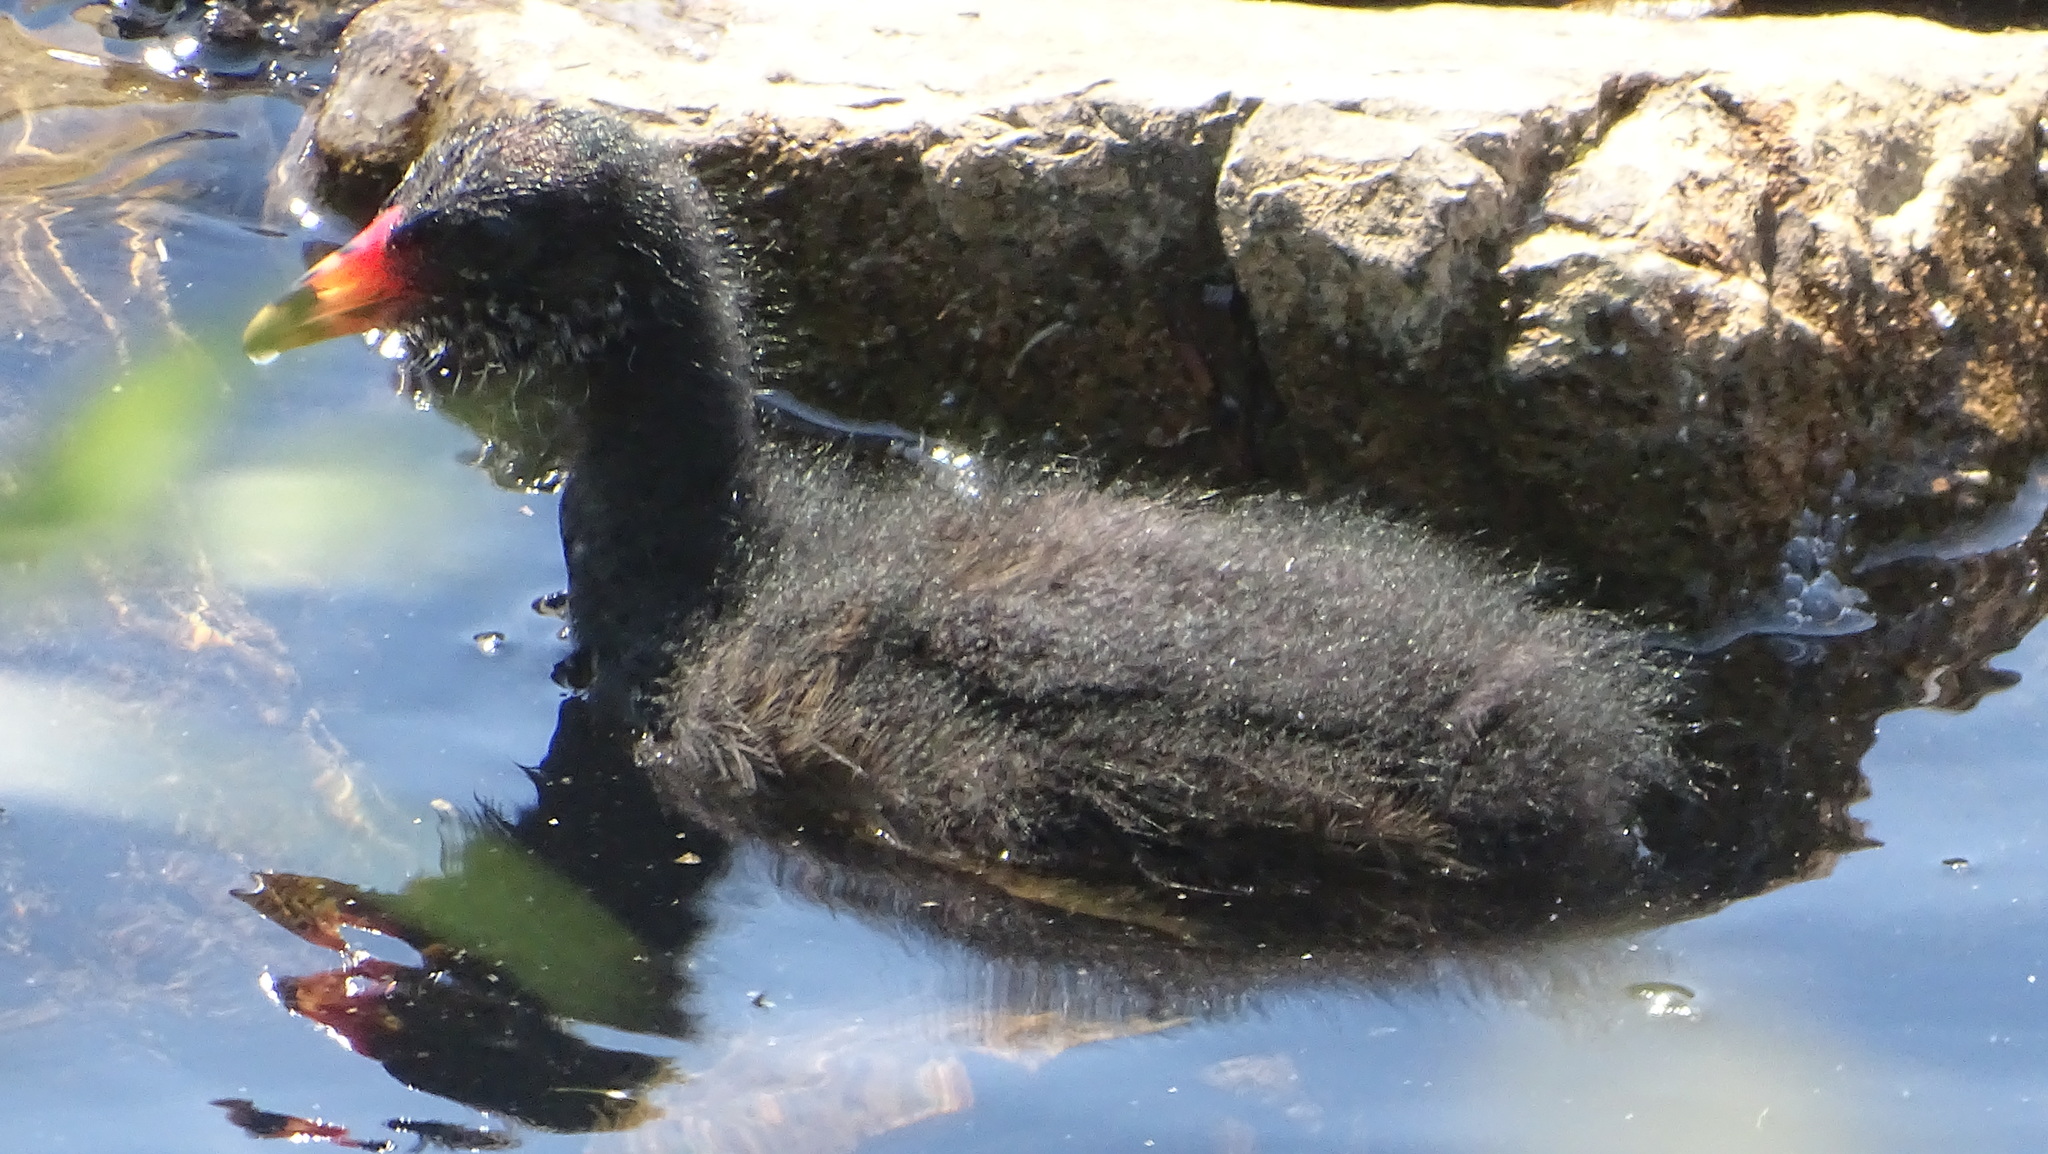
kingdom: Animalia
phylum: Chordata
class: Aves
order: Gruiformes
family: Rallidae
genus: Gallinula
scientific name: Gallinula chloropus
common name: Common moorhen
